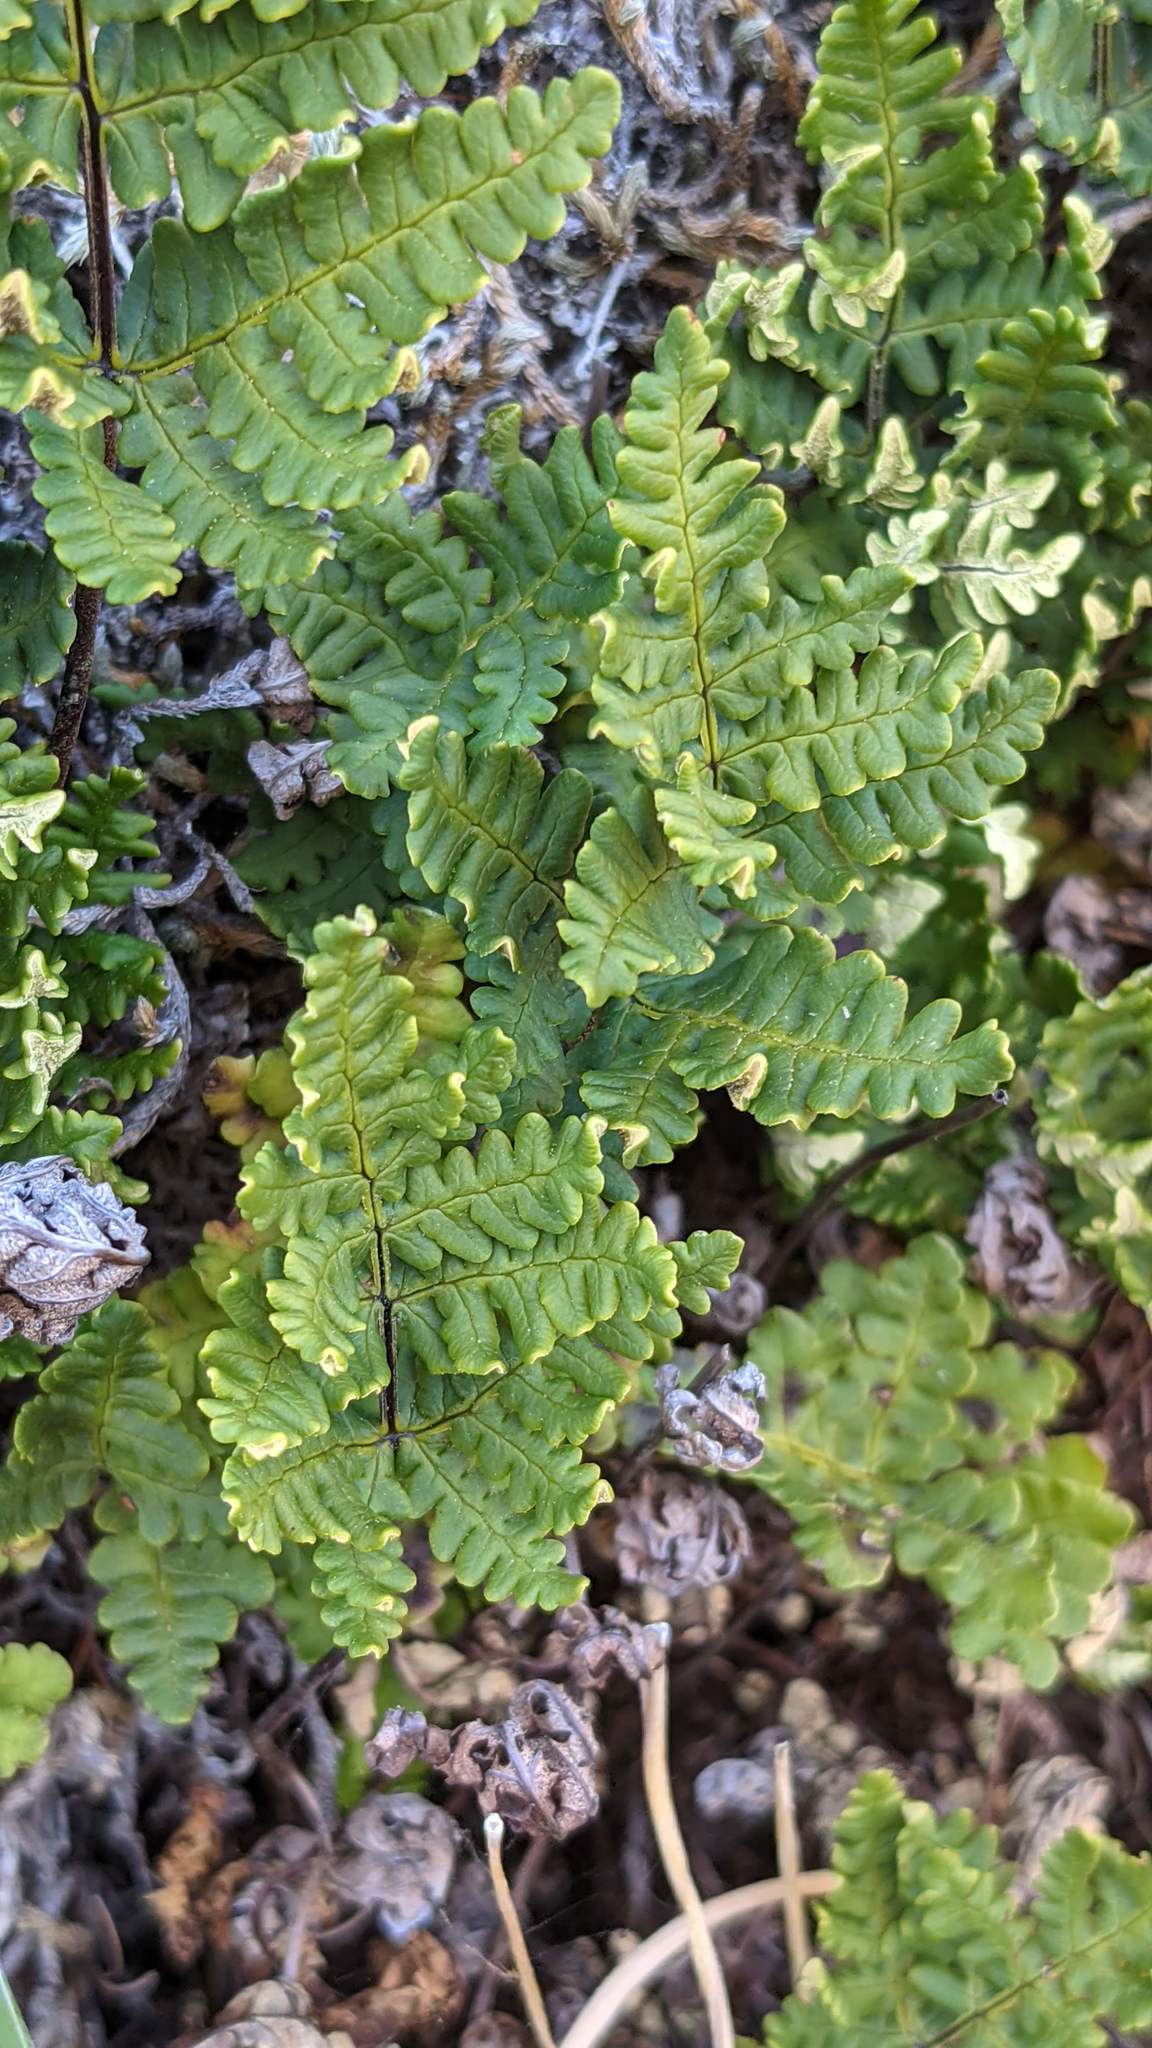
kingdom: Plantae
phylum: Tracheophyta
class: Polypodiopsida
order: Polypodiales
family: Pteridaceae
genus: Pentagramma
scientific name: Pentagramma triangularis
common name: Gold fern
